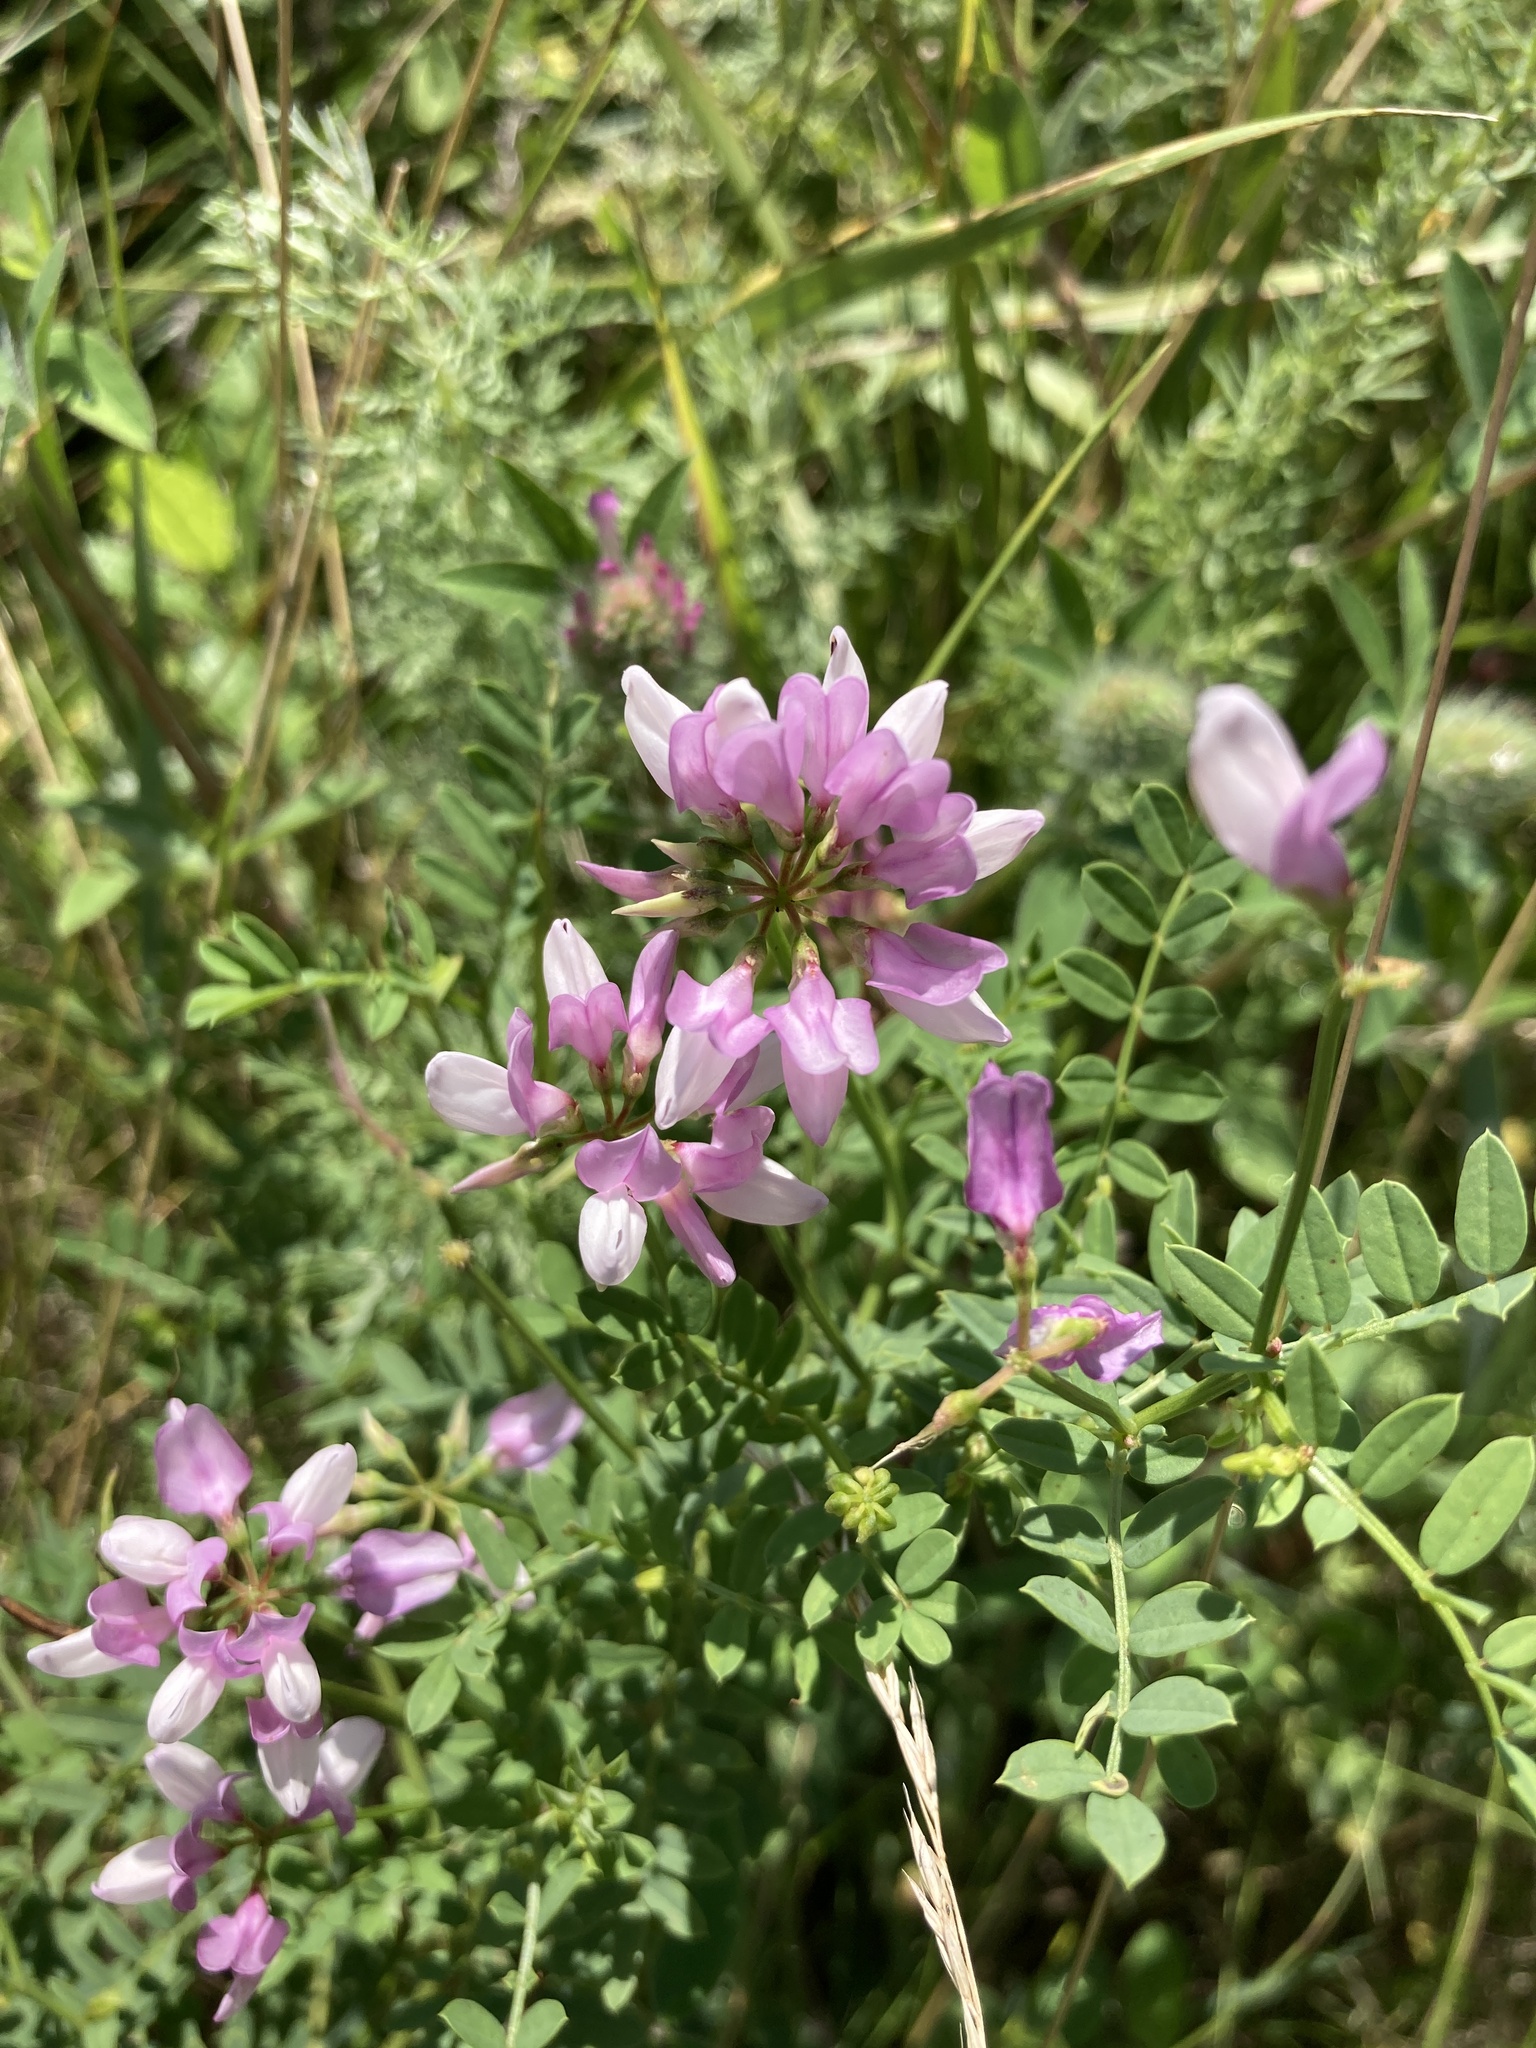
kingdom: Plantae
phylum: Tracheophyta
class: Magnoliopsida
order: Fabales
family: Fabaceae
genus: Coronilla
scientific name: Coronilla varia
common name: Crownvetch
